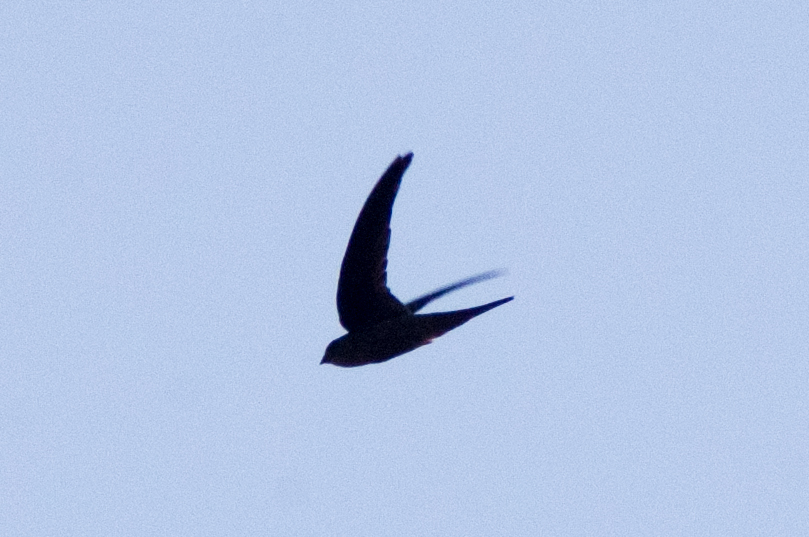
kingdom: Animalia
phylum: Chordata
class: Aves
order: Apodiformes
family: Apodidae
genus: Cypsiurus
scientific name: Cypsiurus balasiensis
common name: Asian palm swift
